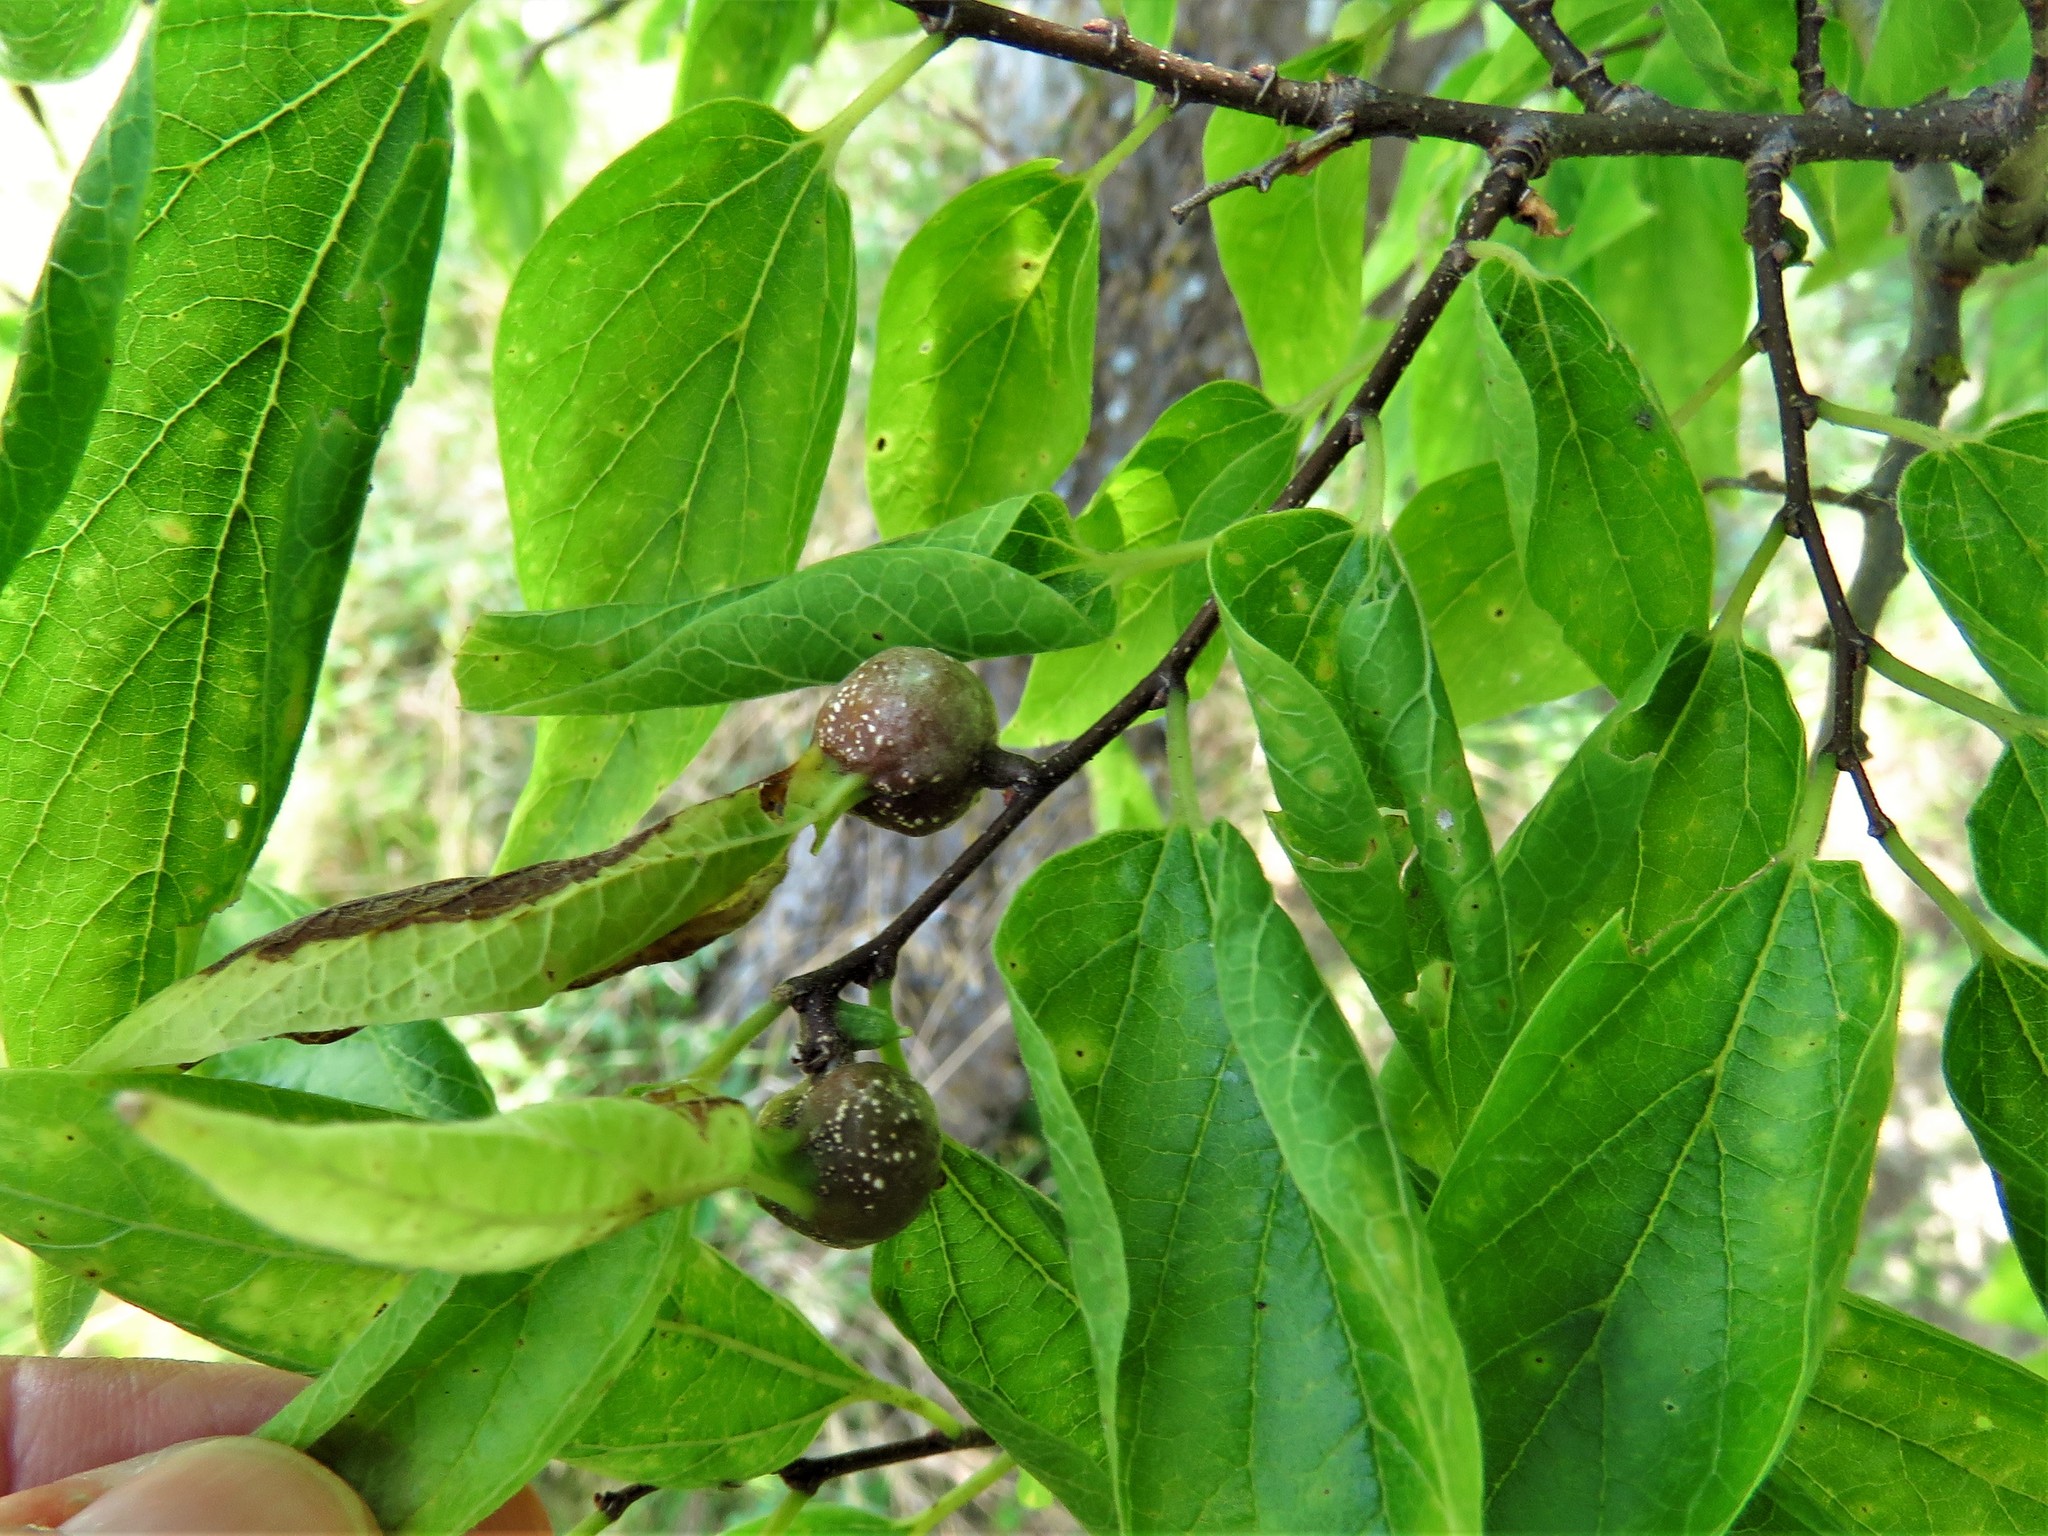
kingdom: Animalia
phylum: Arthropoda
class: Insecta
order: Hemiptera
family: Aphalaridae
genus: Pachypsylla
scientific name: Pachypsylla venusta
